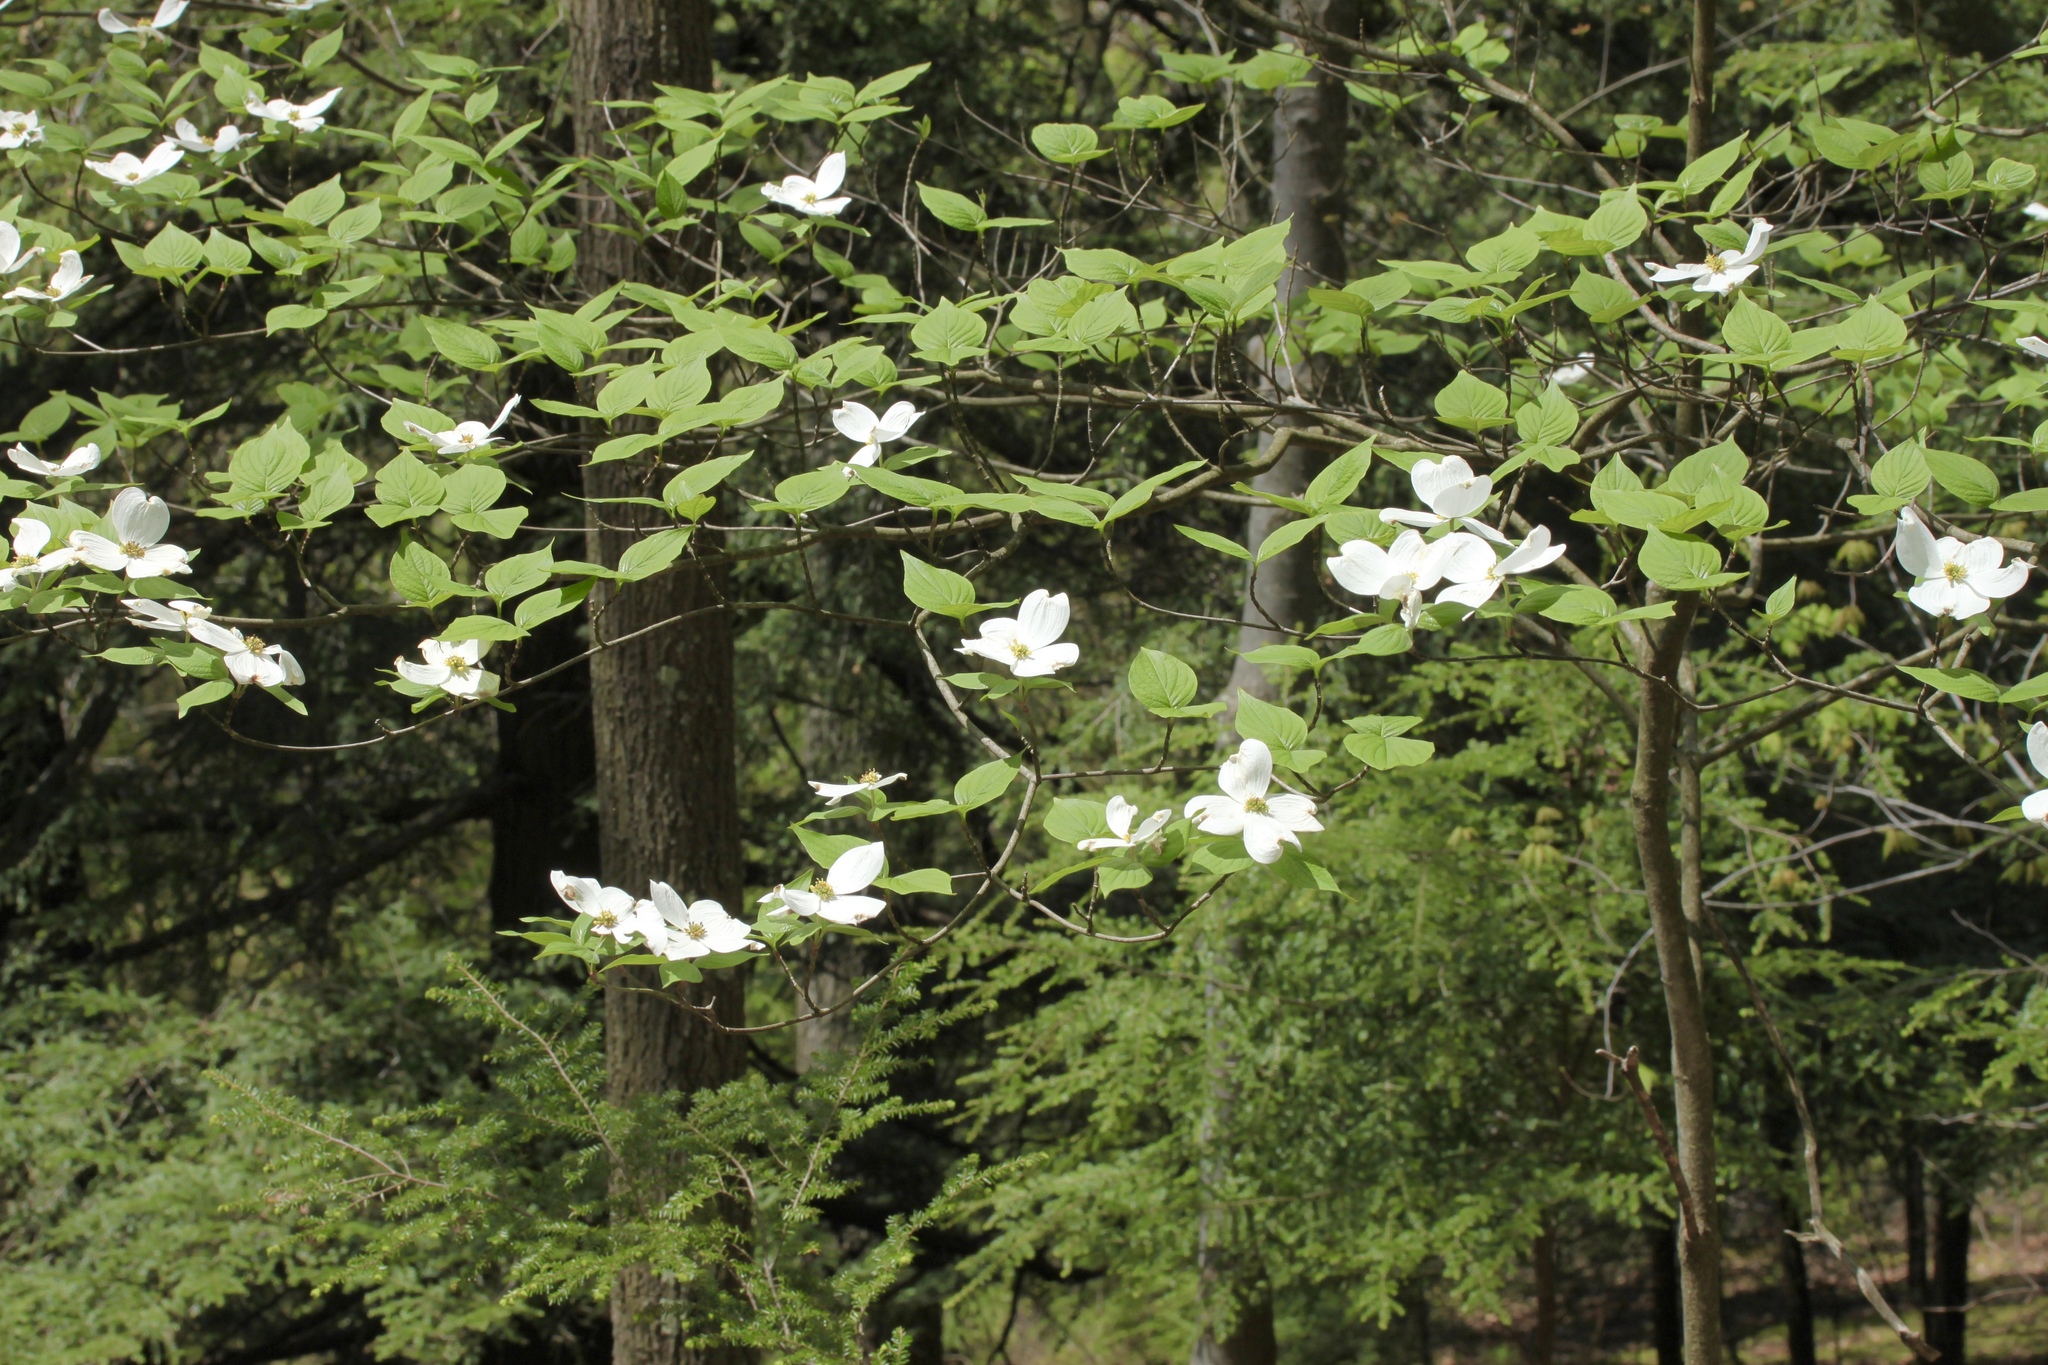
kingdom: Plantae
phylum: Tracheophyta
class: Magnoliopsida
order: Cornales
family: Cornaceae
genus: Cornus
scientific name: Cornus florida
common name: Flowering dogwood
